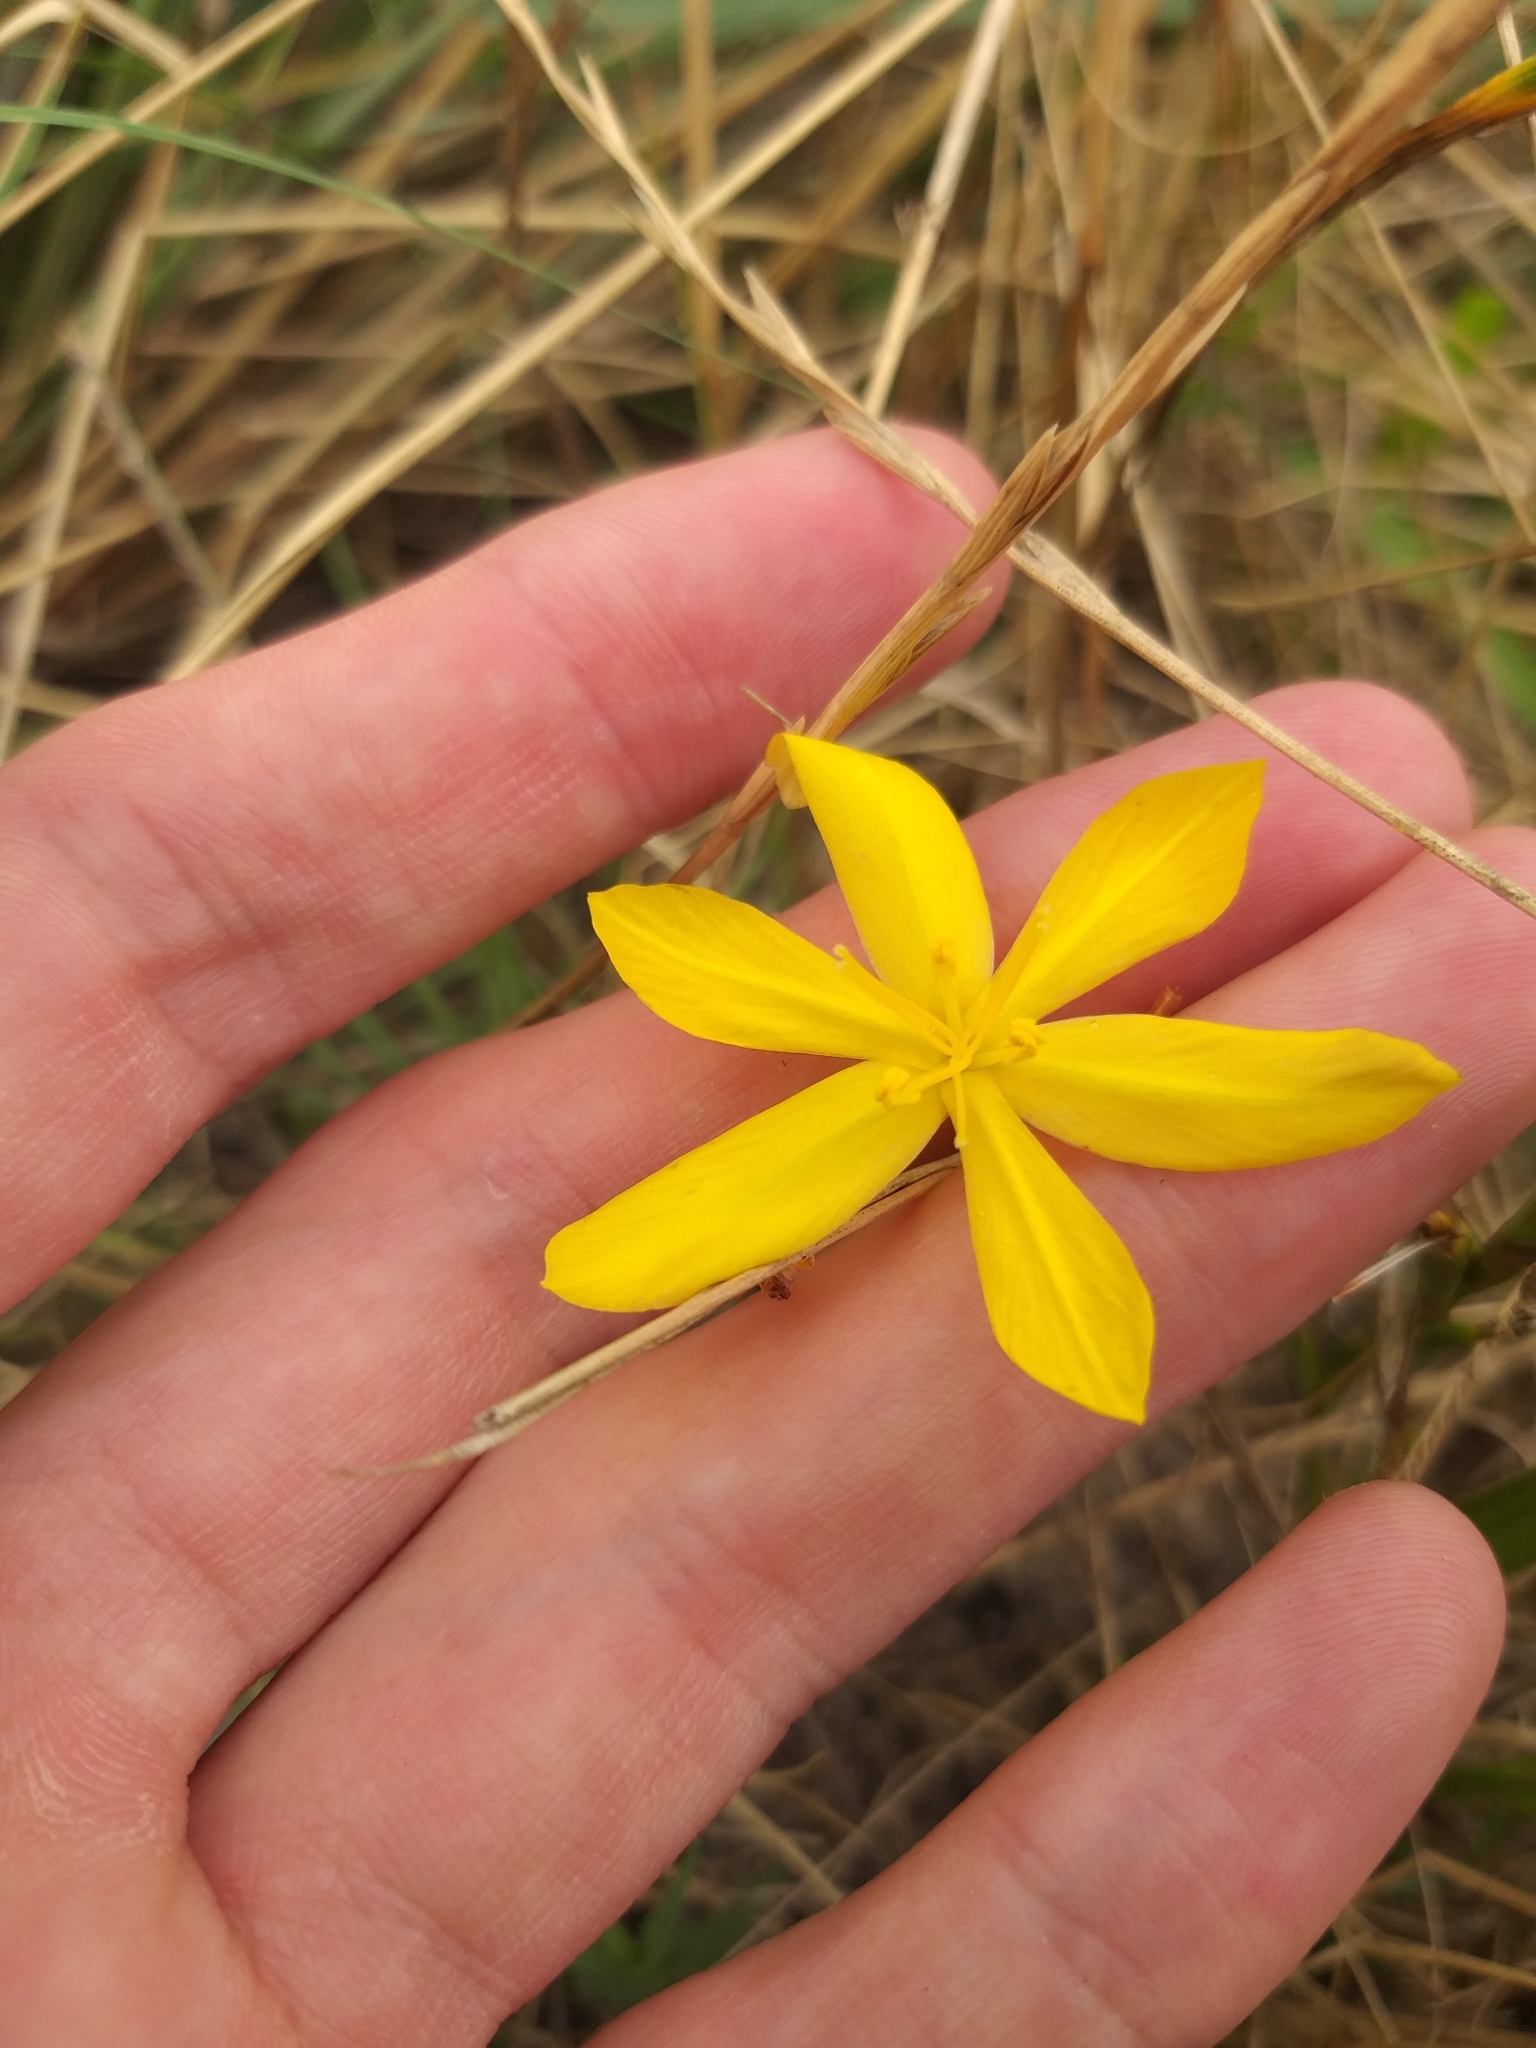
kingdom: Plantae
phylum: Tracheophyta
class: Liliopsida
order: Asparagales
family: Iridaceae
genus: Moraea
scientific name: Moraea lewisiae
